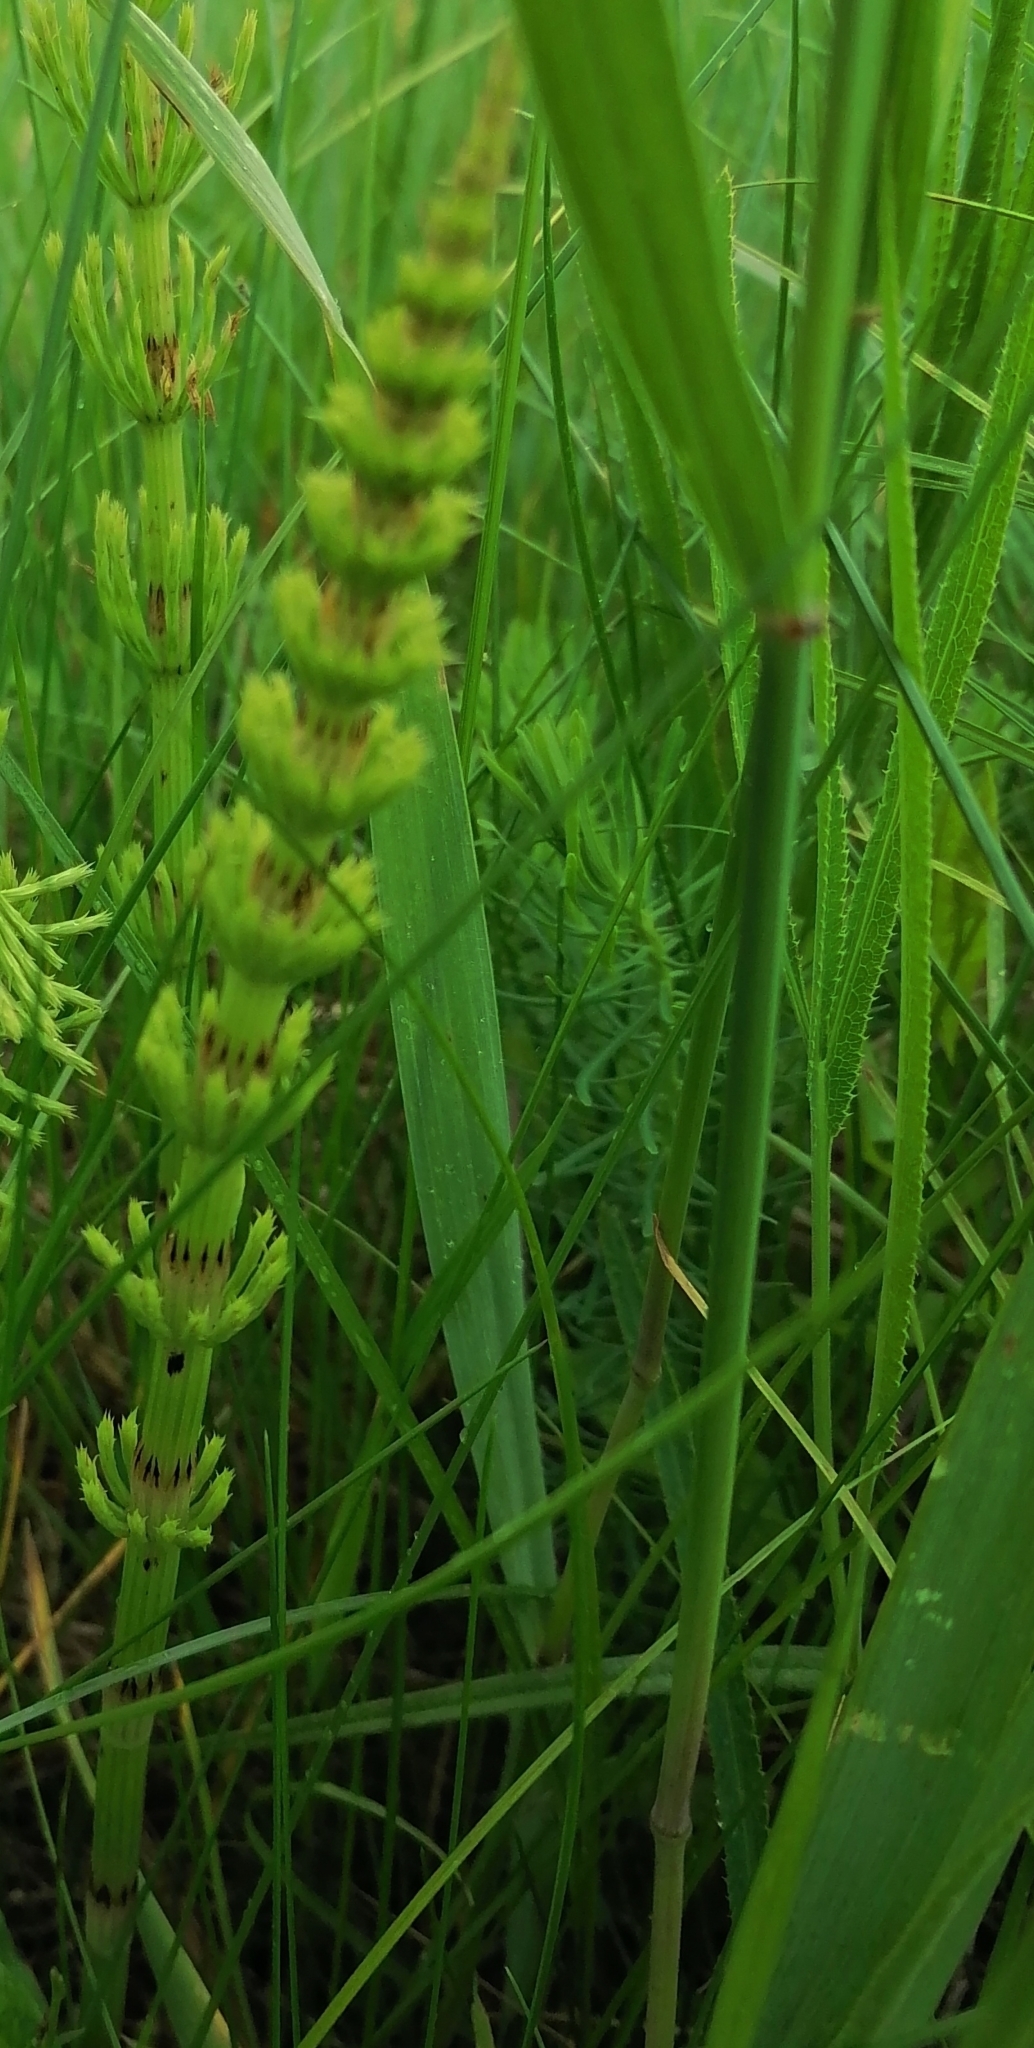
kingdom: Plantae
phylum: Tracheophyta
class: Polypodiopsida
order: Equisetales
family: Equisetaceae
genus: Equisetum
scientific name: Equisetum arvense
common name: Field horsetail
